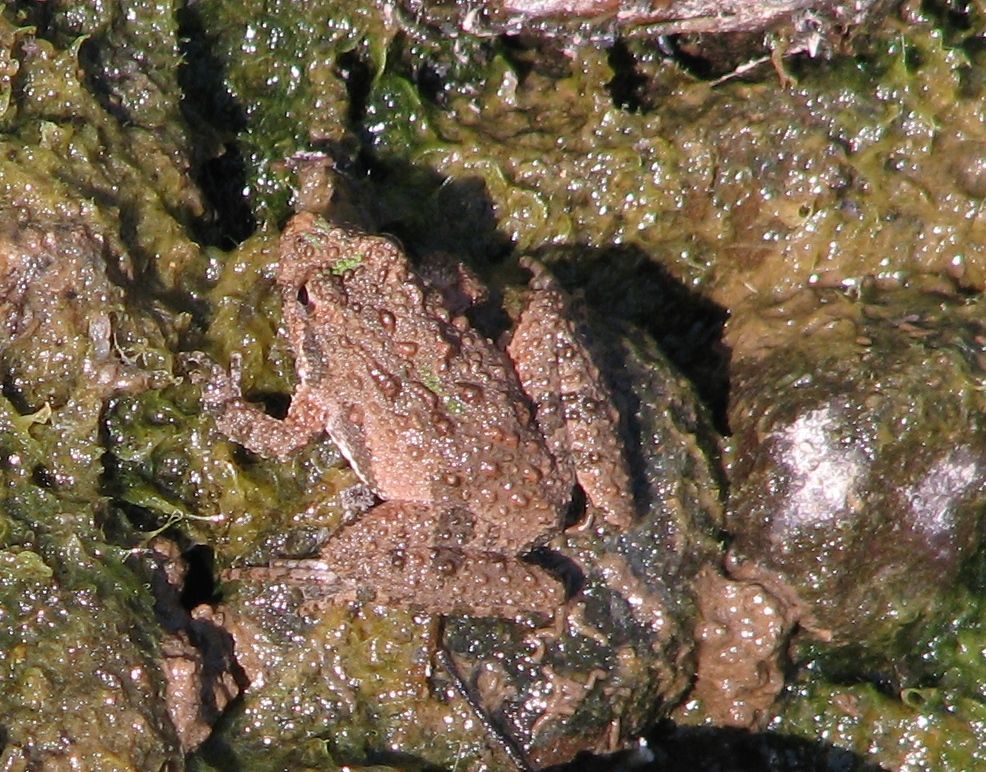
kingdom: Animalia
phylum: Chordata
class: Amphibia
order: Anura
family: Hylidae
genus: Acris
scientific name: Acris crepitans
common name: Northern cricket frog
